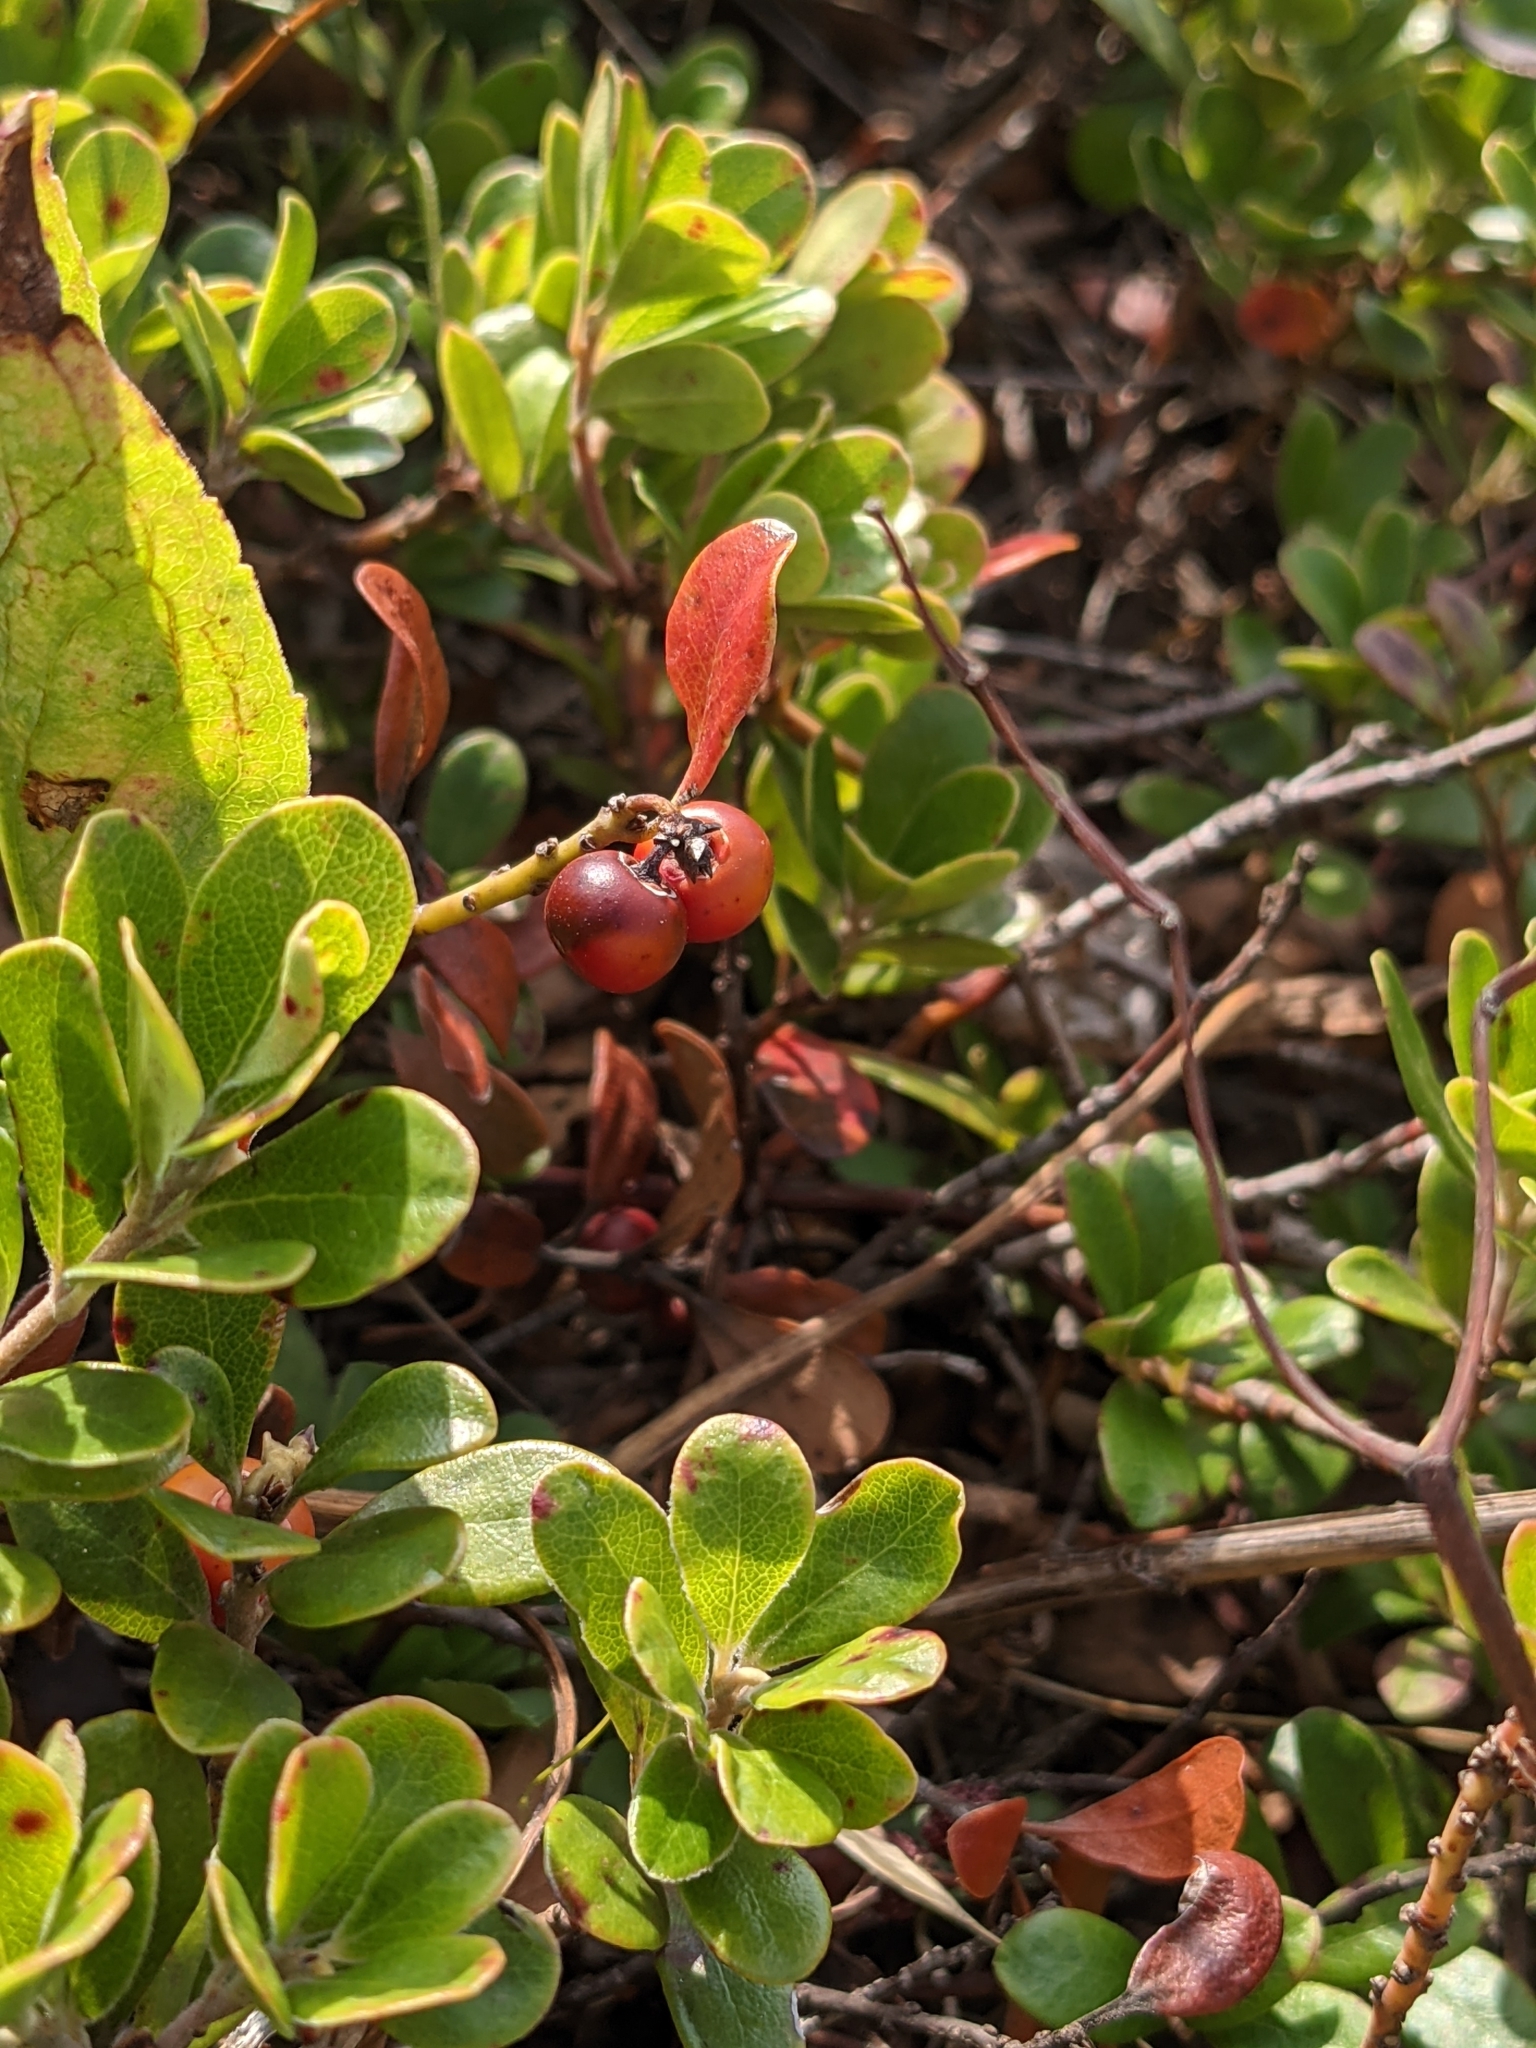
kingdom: Plantae
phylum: Tracheophyta
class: Magnoliopsida
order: Ericales
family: Ericaceae
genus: Arctostaphylos
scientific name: Arctostaphylos uva-ursi
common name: Bearberry
